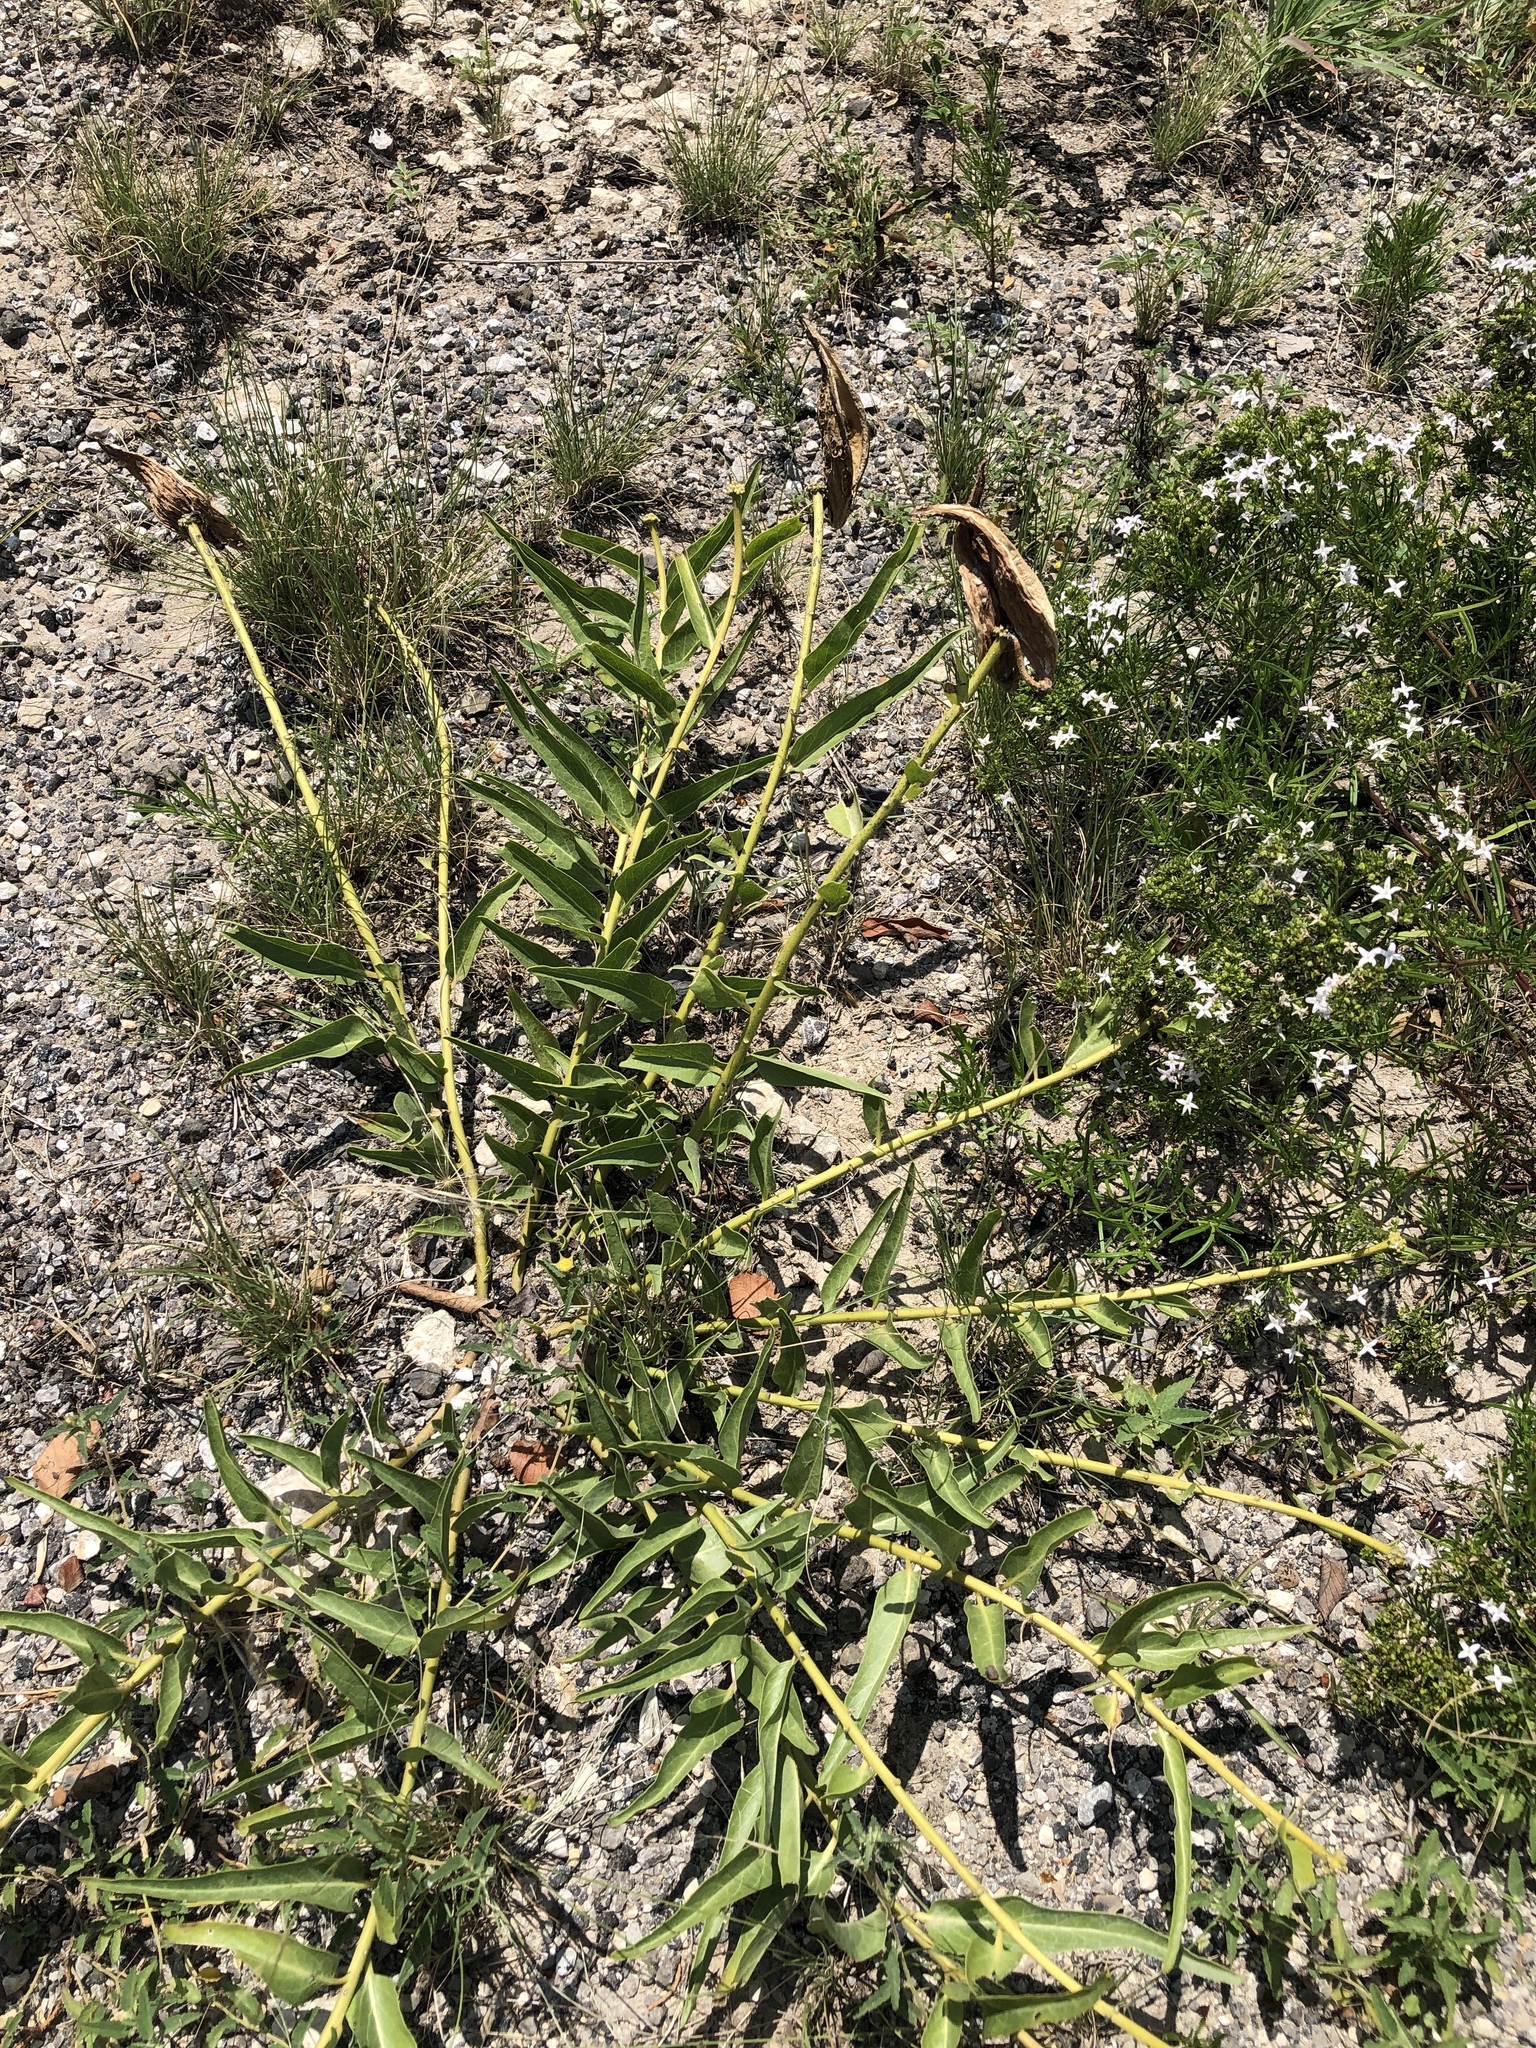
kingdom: Plantae
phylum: Tracheophyta
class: Magnoliopsida
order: Gentianales
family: Apocynaceae
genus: Asclepias
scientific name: Asclepias asperula
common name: Antelope horns
